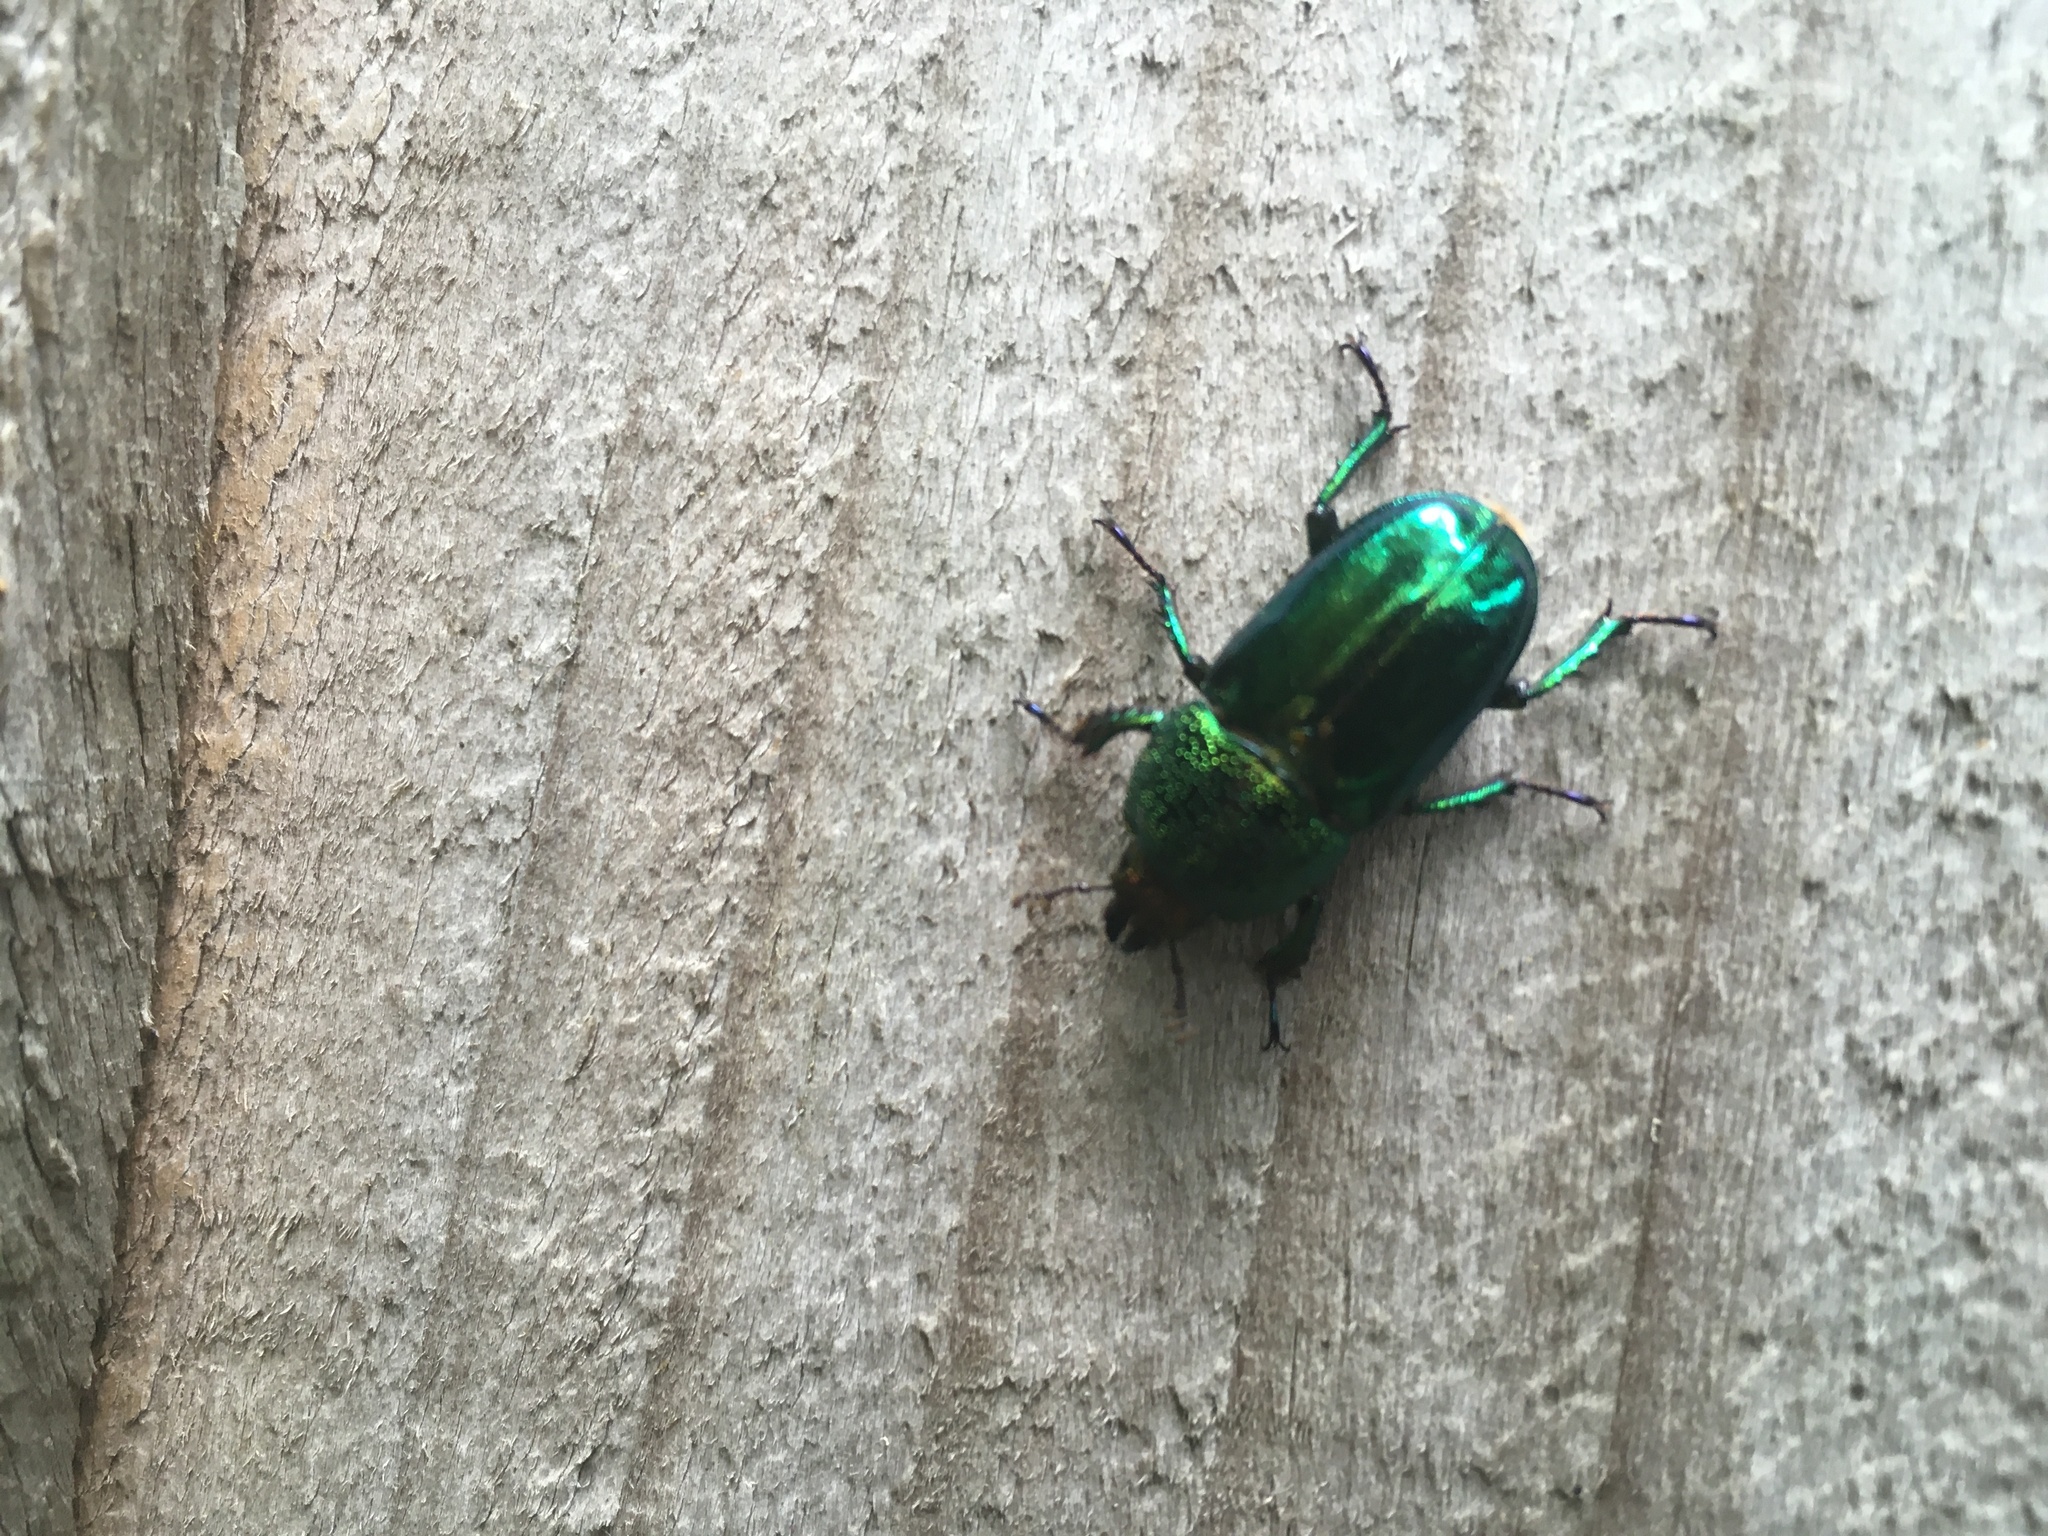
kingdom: Animalia
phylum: Arthropoda
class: Insecta
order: Coleoptera
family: Lucanidae
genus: Lamprima
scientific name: Lamprima aurata
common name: Golden stag beetle
